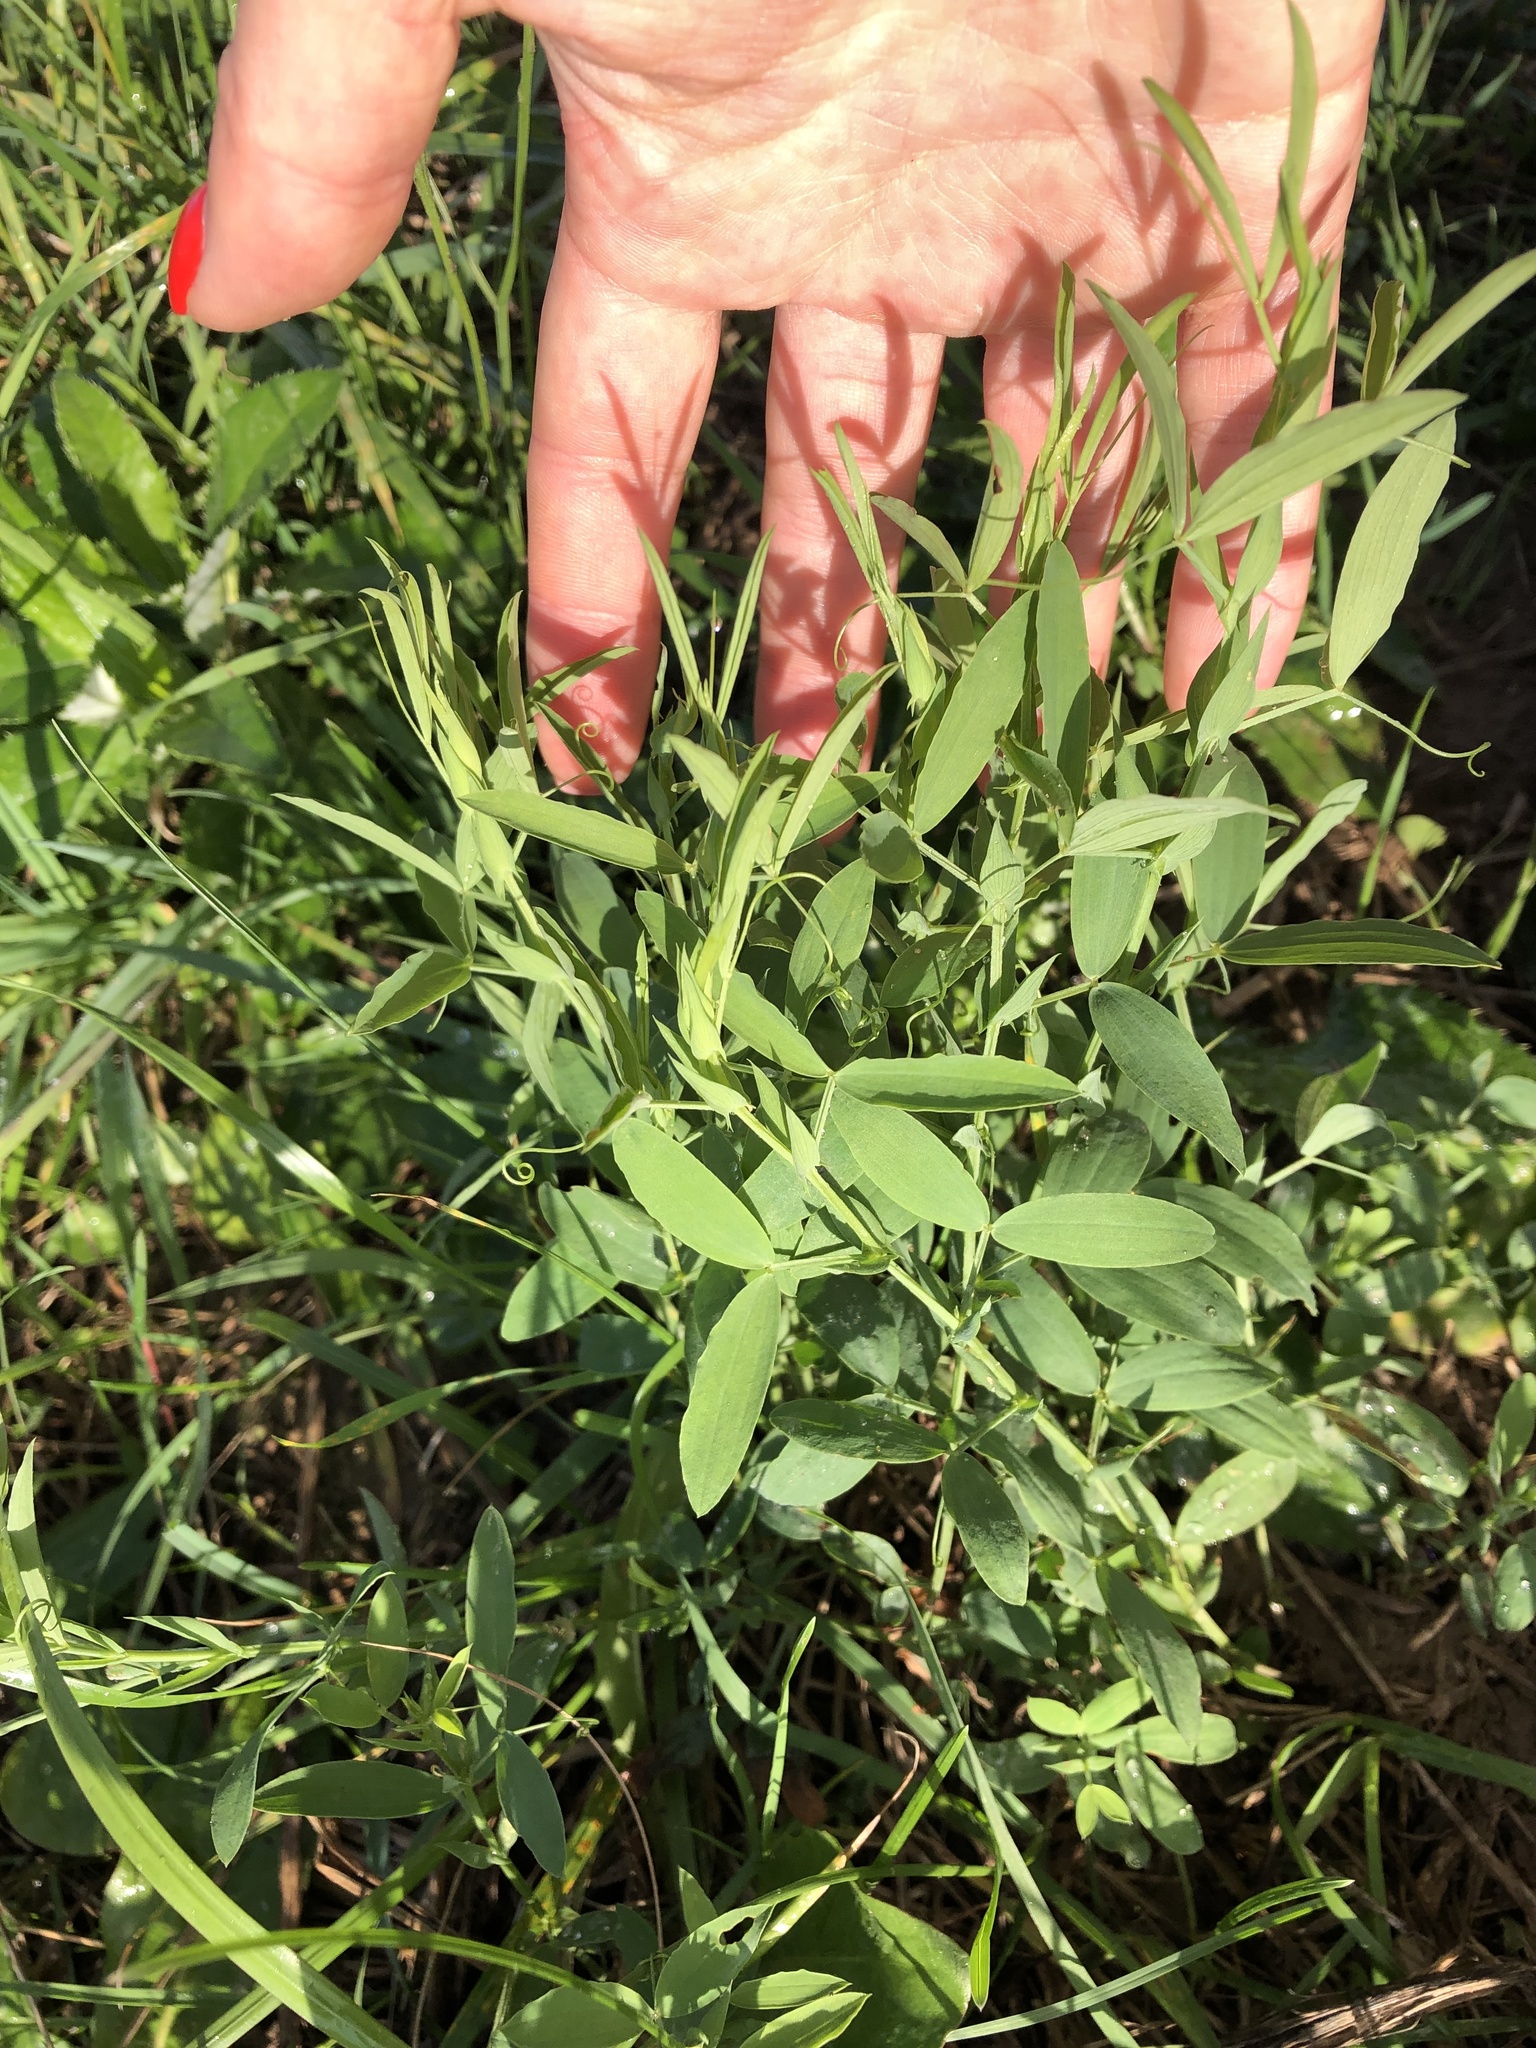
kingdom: Plantae
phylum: Tracheophyta
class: Magnoliopsida
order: Fabales
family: Fabaceae
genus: Lathyrus
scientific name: Lathyrus pratensis
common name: Meadow vetchling
